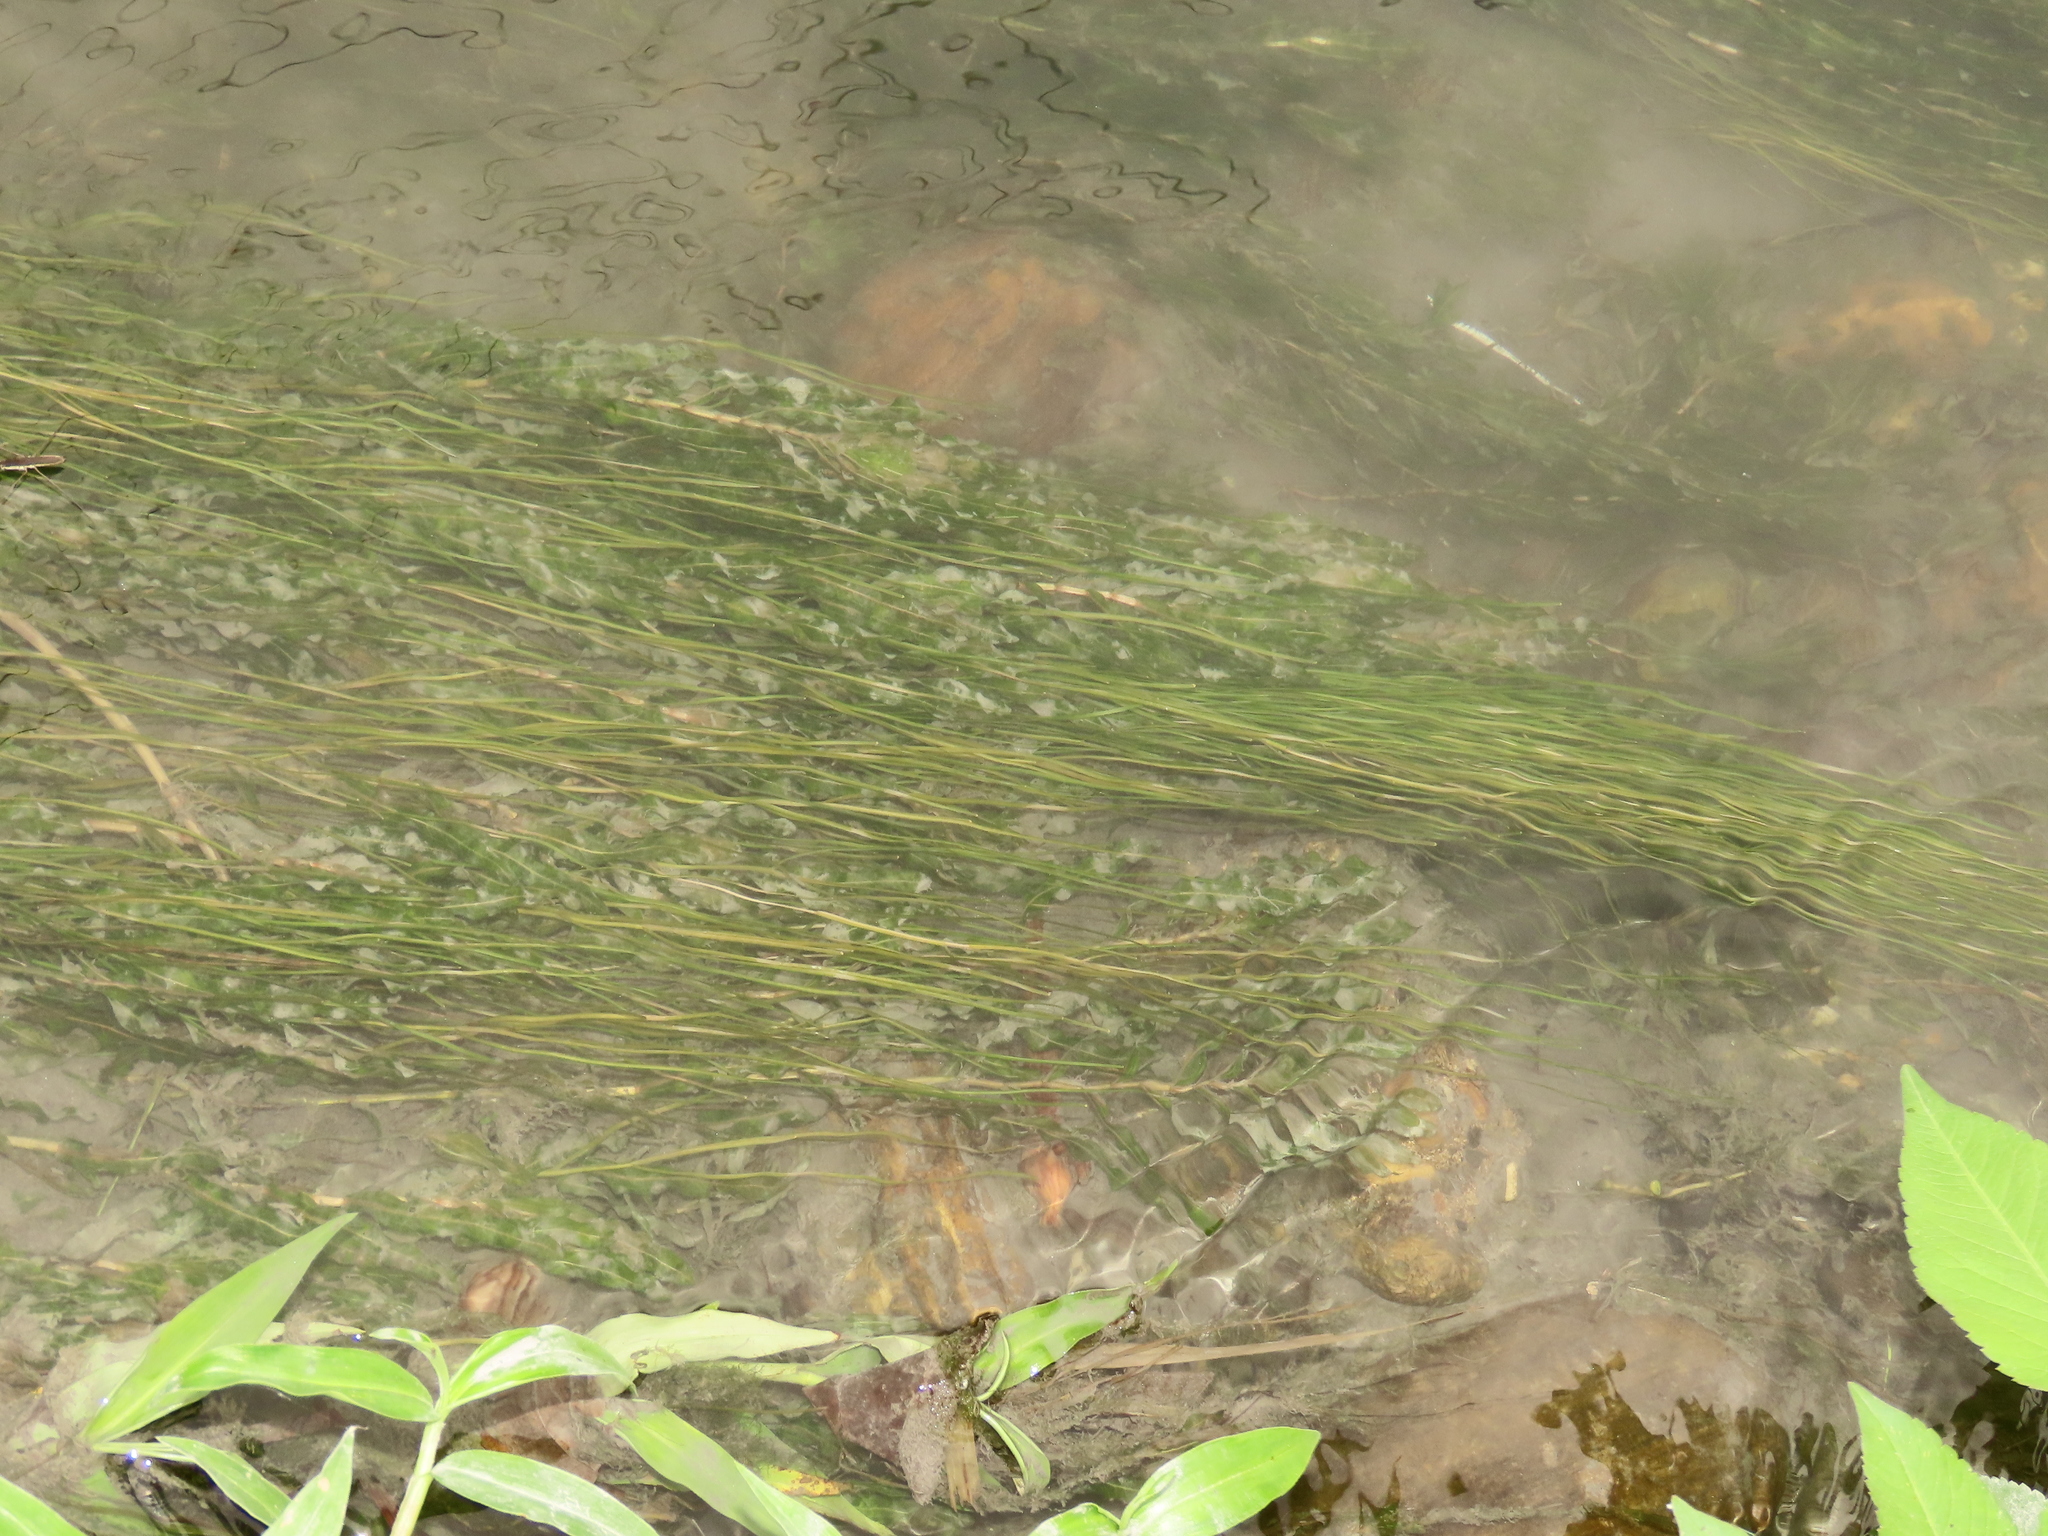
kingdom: Plantae
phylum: Tracheophyta
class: Liliopsida
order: Alismatales
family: Potamogetonaceae
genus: Potamogeton
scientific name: Potamogeton crispus
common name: Curled pondweed
